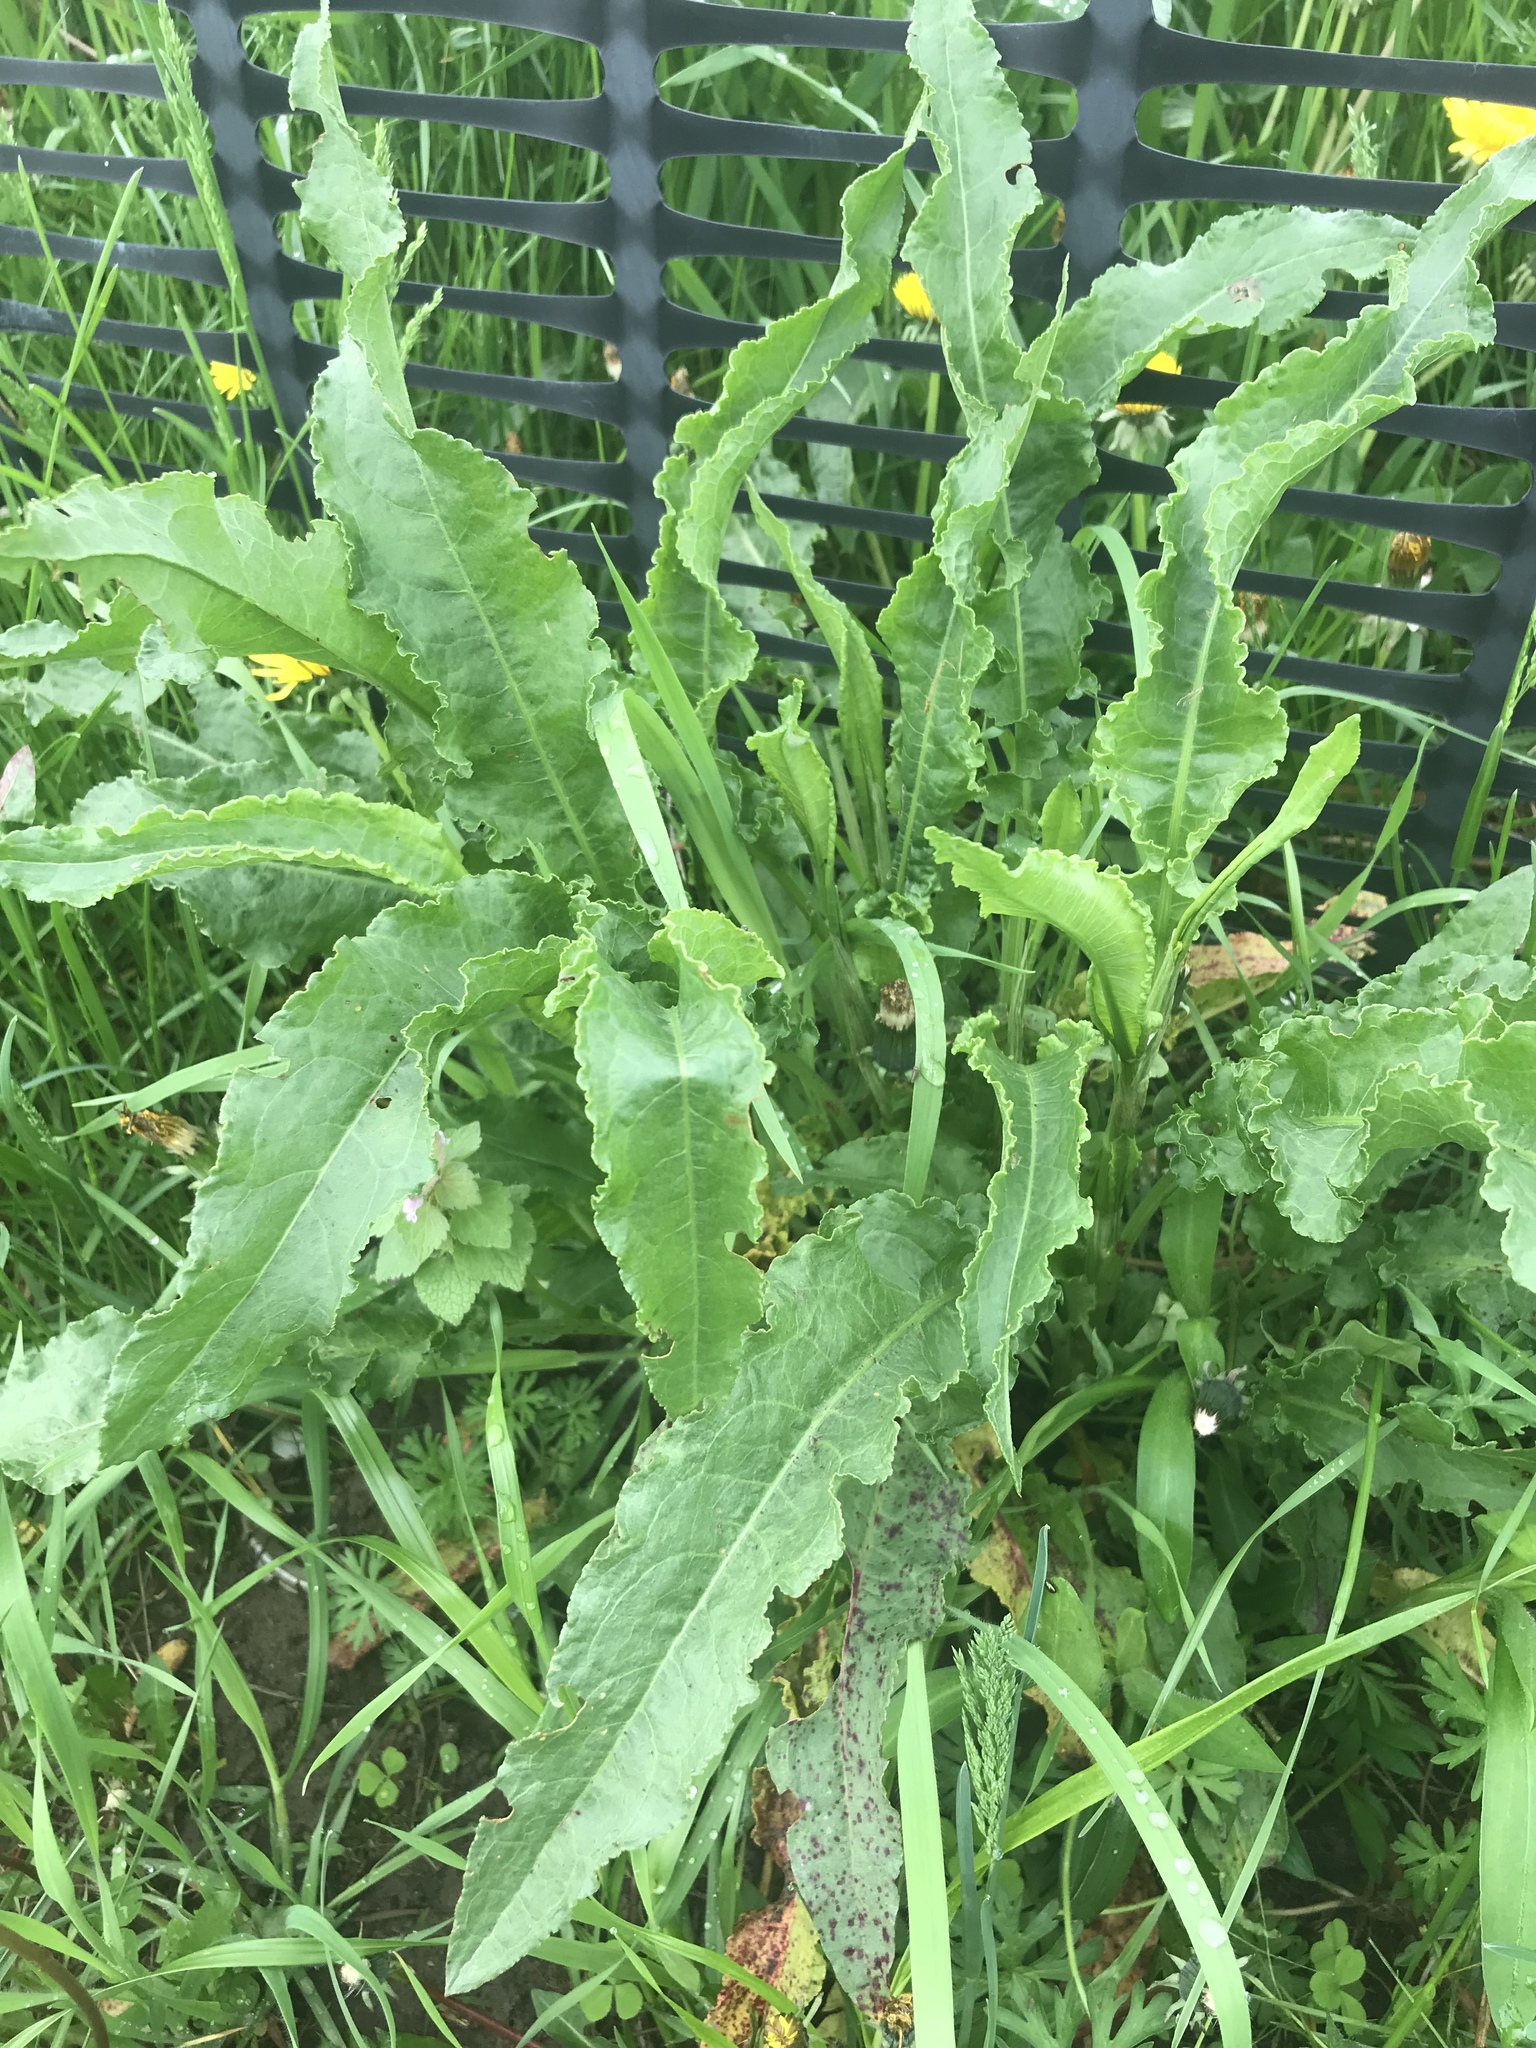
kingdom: Plantae
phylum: Tracheophyta
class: Magnoliopsida
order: Caryophyllales
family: Polygonaceae
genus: Rumex
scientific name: Rumex crispus
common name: Curled dock
